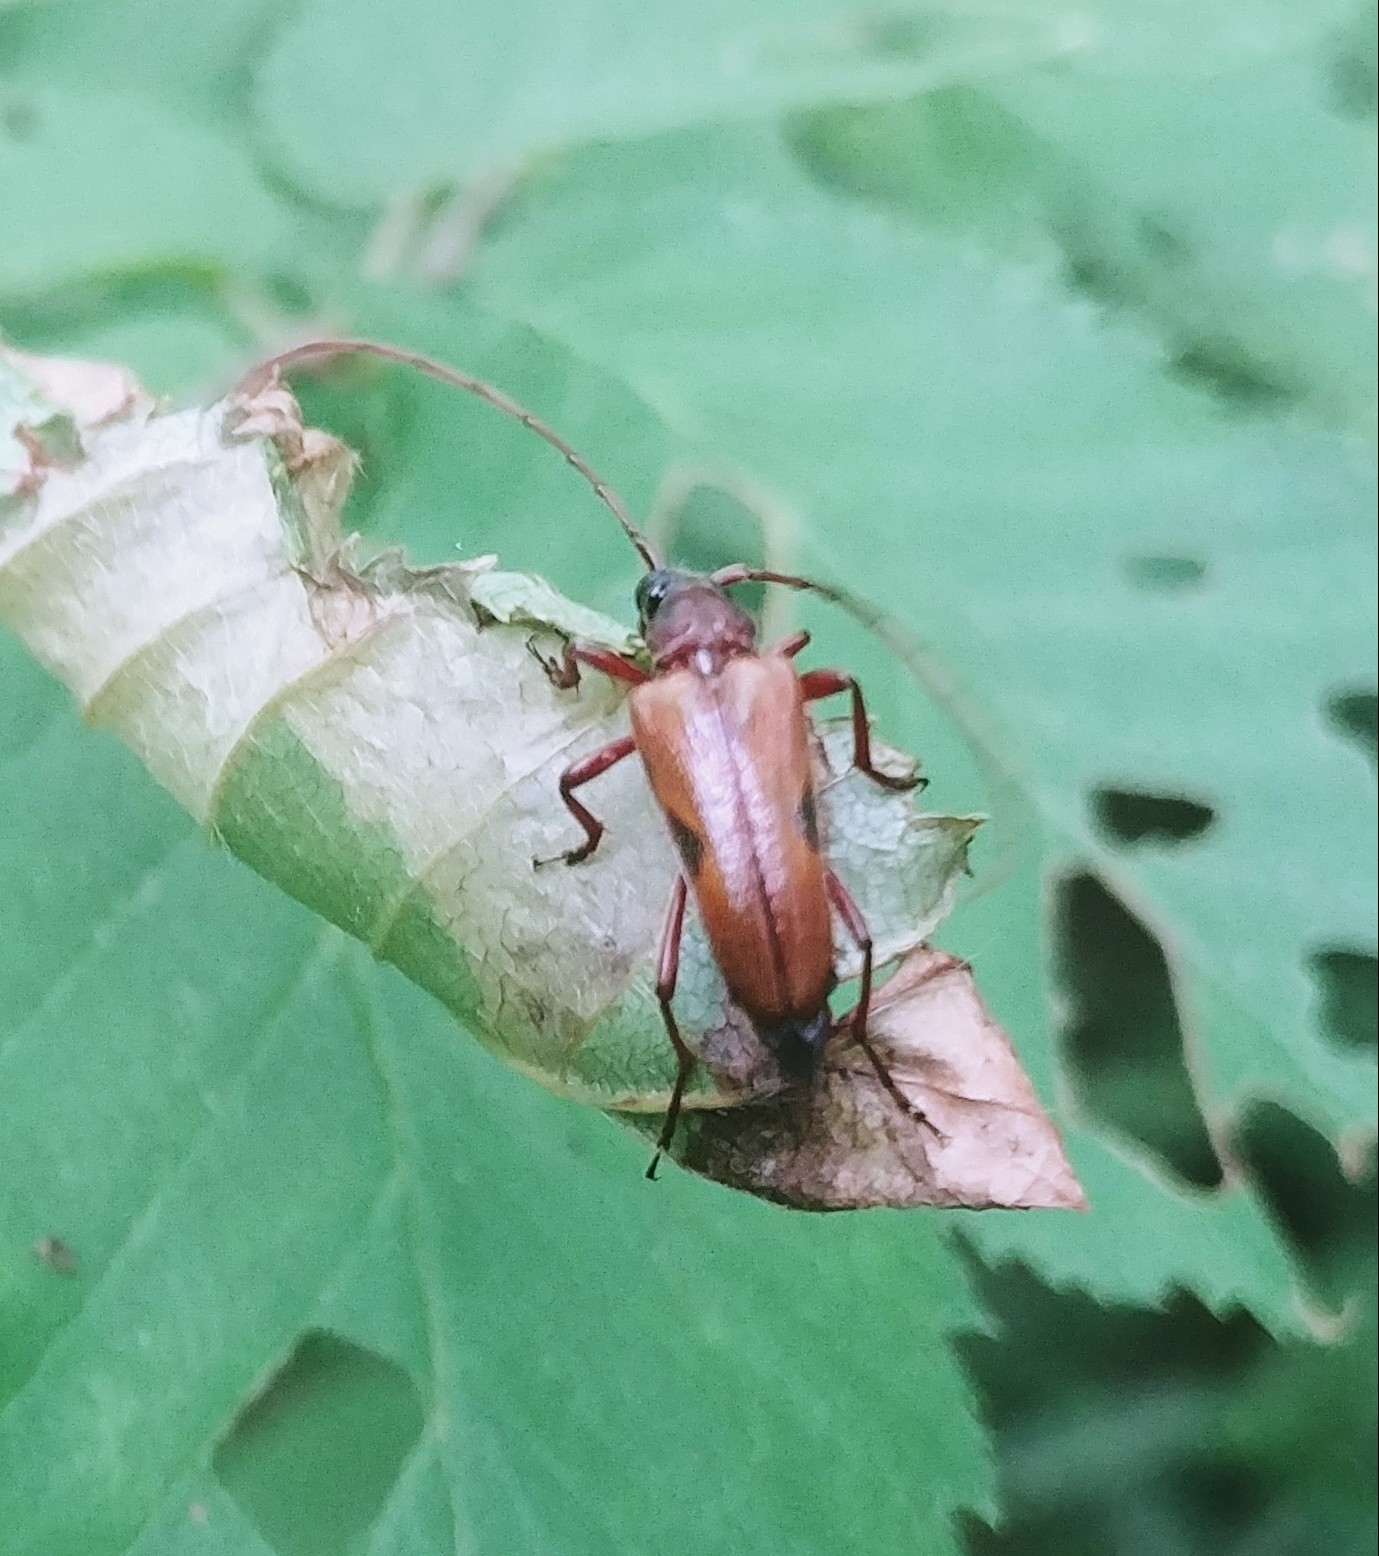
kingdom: Animalia
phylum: Arthropoda
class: Insecta
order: Coleoptera
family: Cerambycidae
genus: Lepturopsis
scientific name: Lepturopsis biforis
